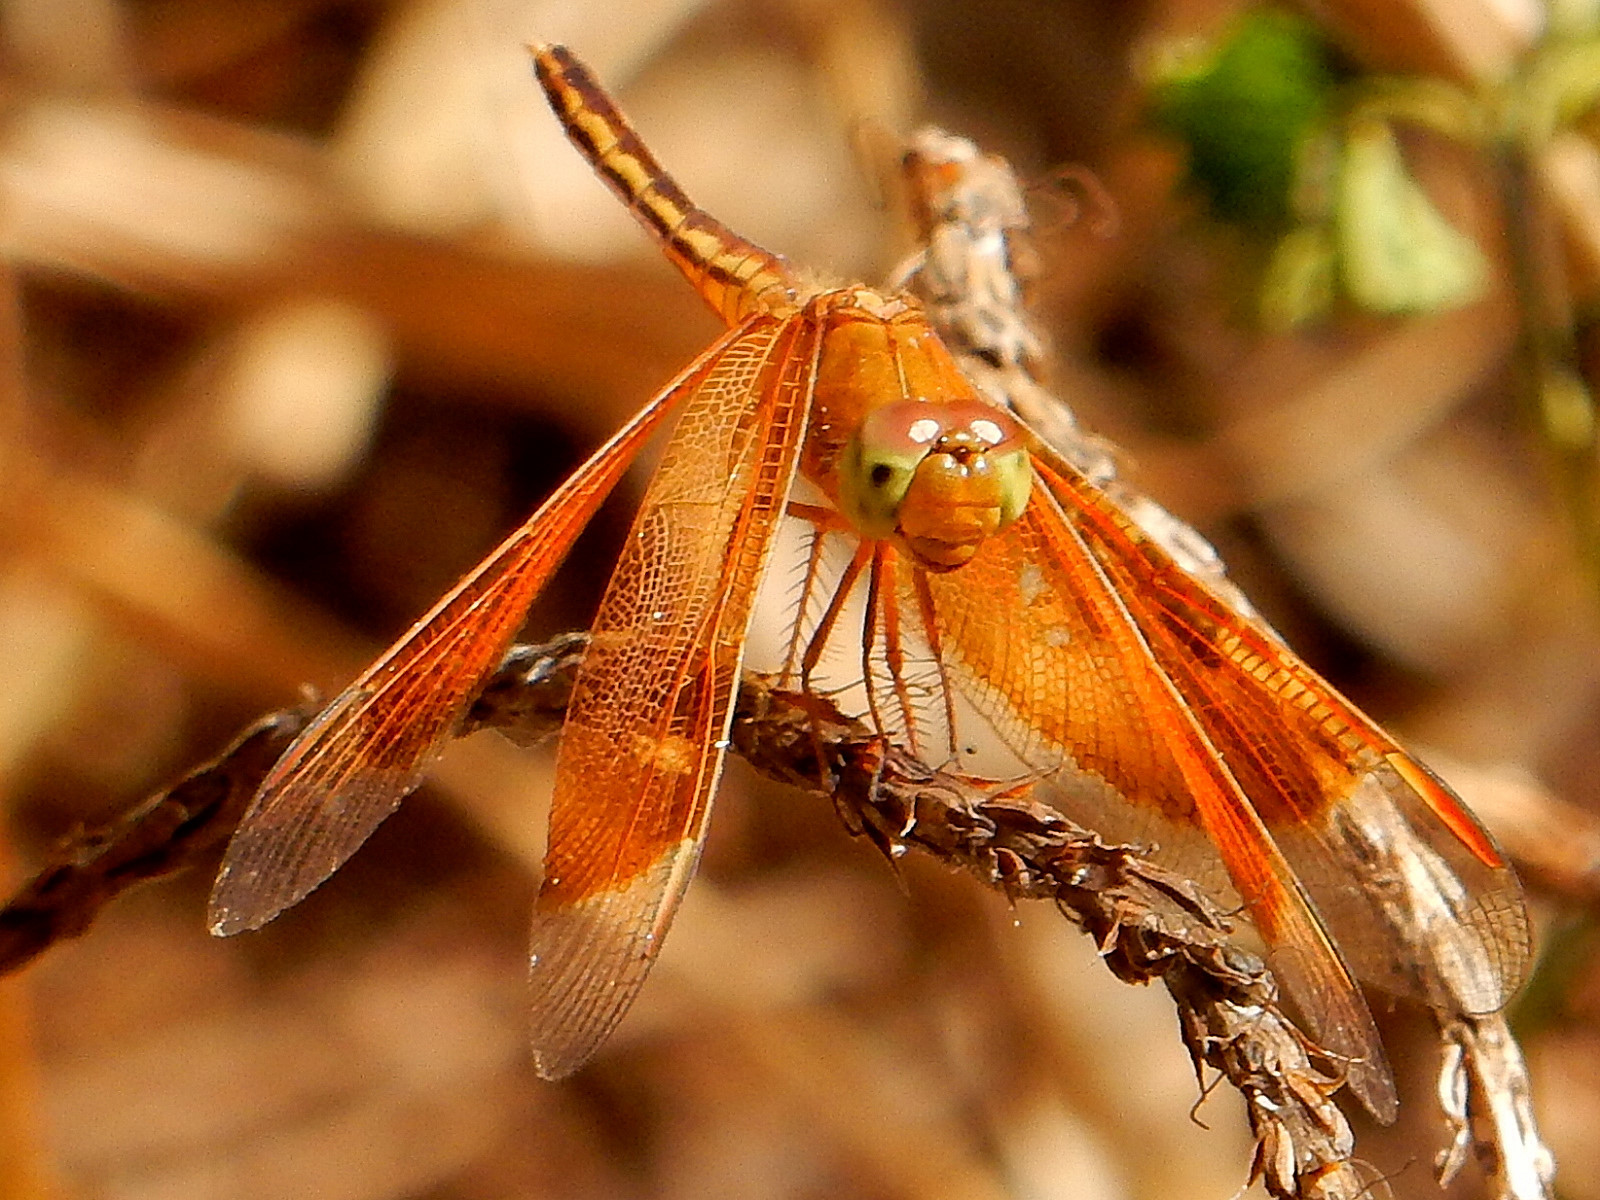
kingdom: Animalia
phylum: Arthropoda
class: Insecta
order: Odonata
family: Libellulidae
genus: Neurothemis
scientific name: Neurothemis stigmatizans
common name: Painted grasshawk
